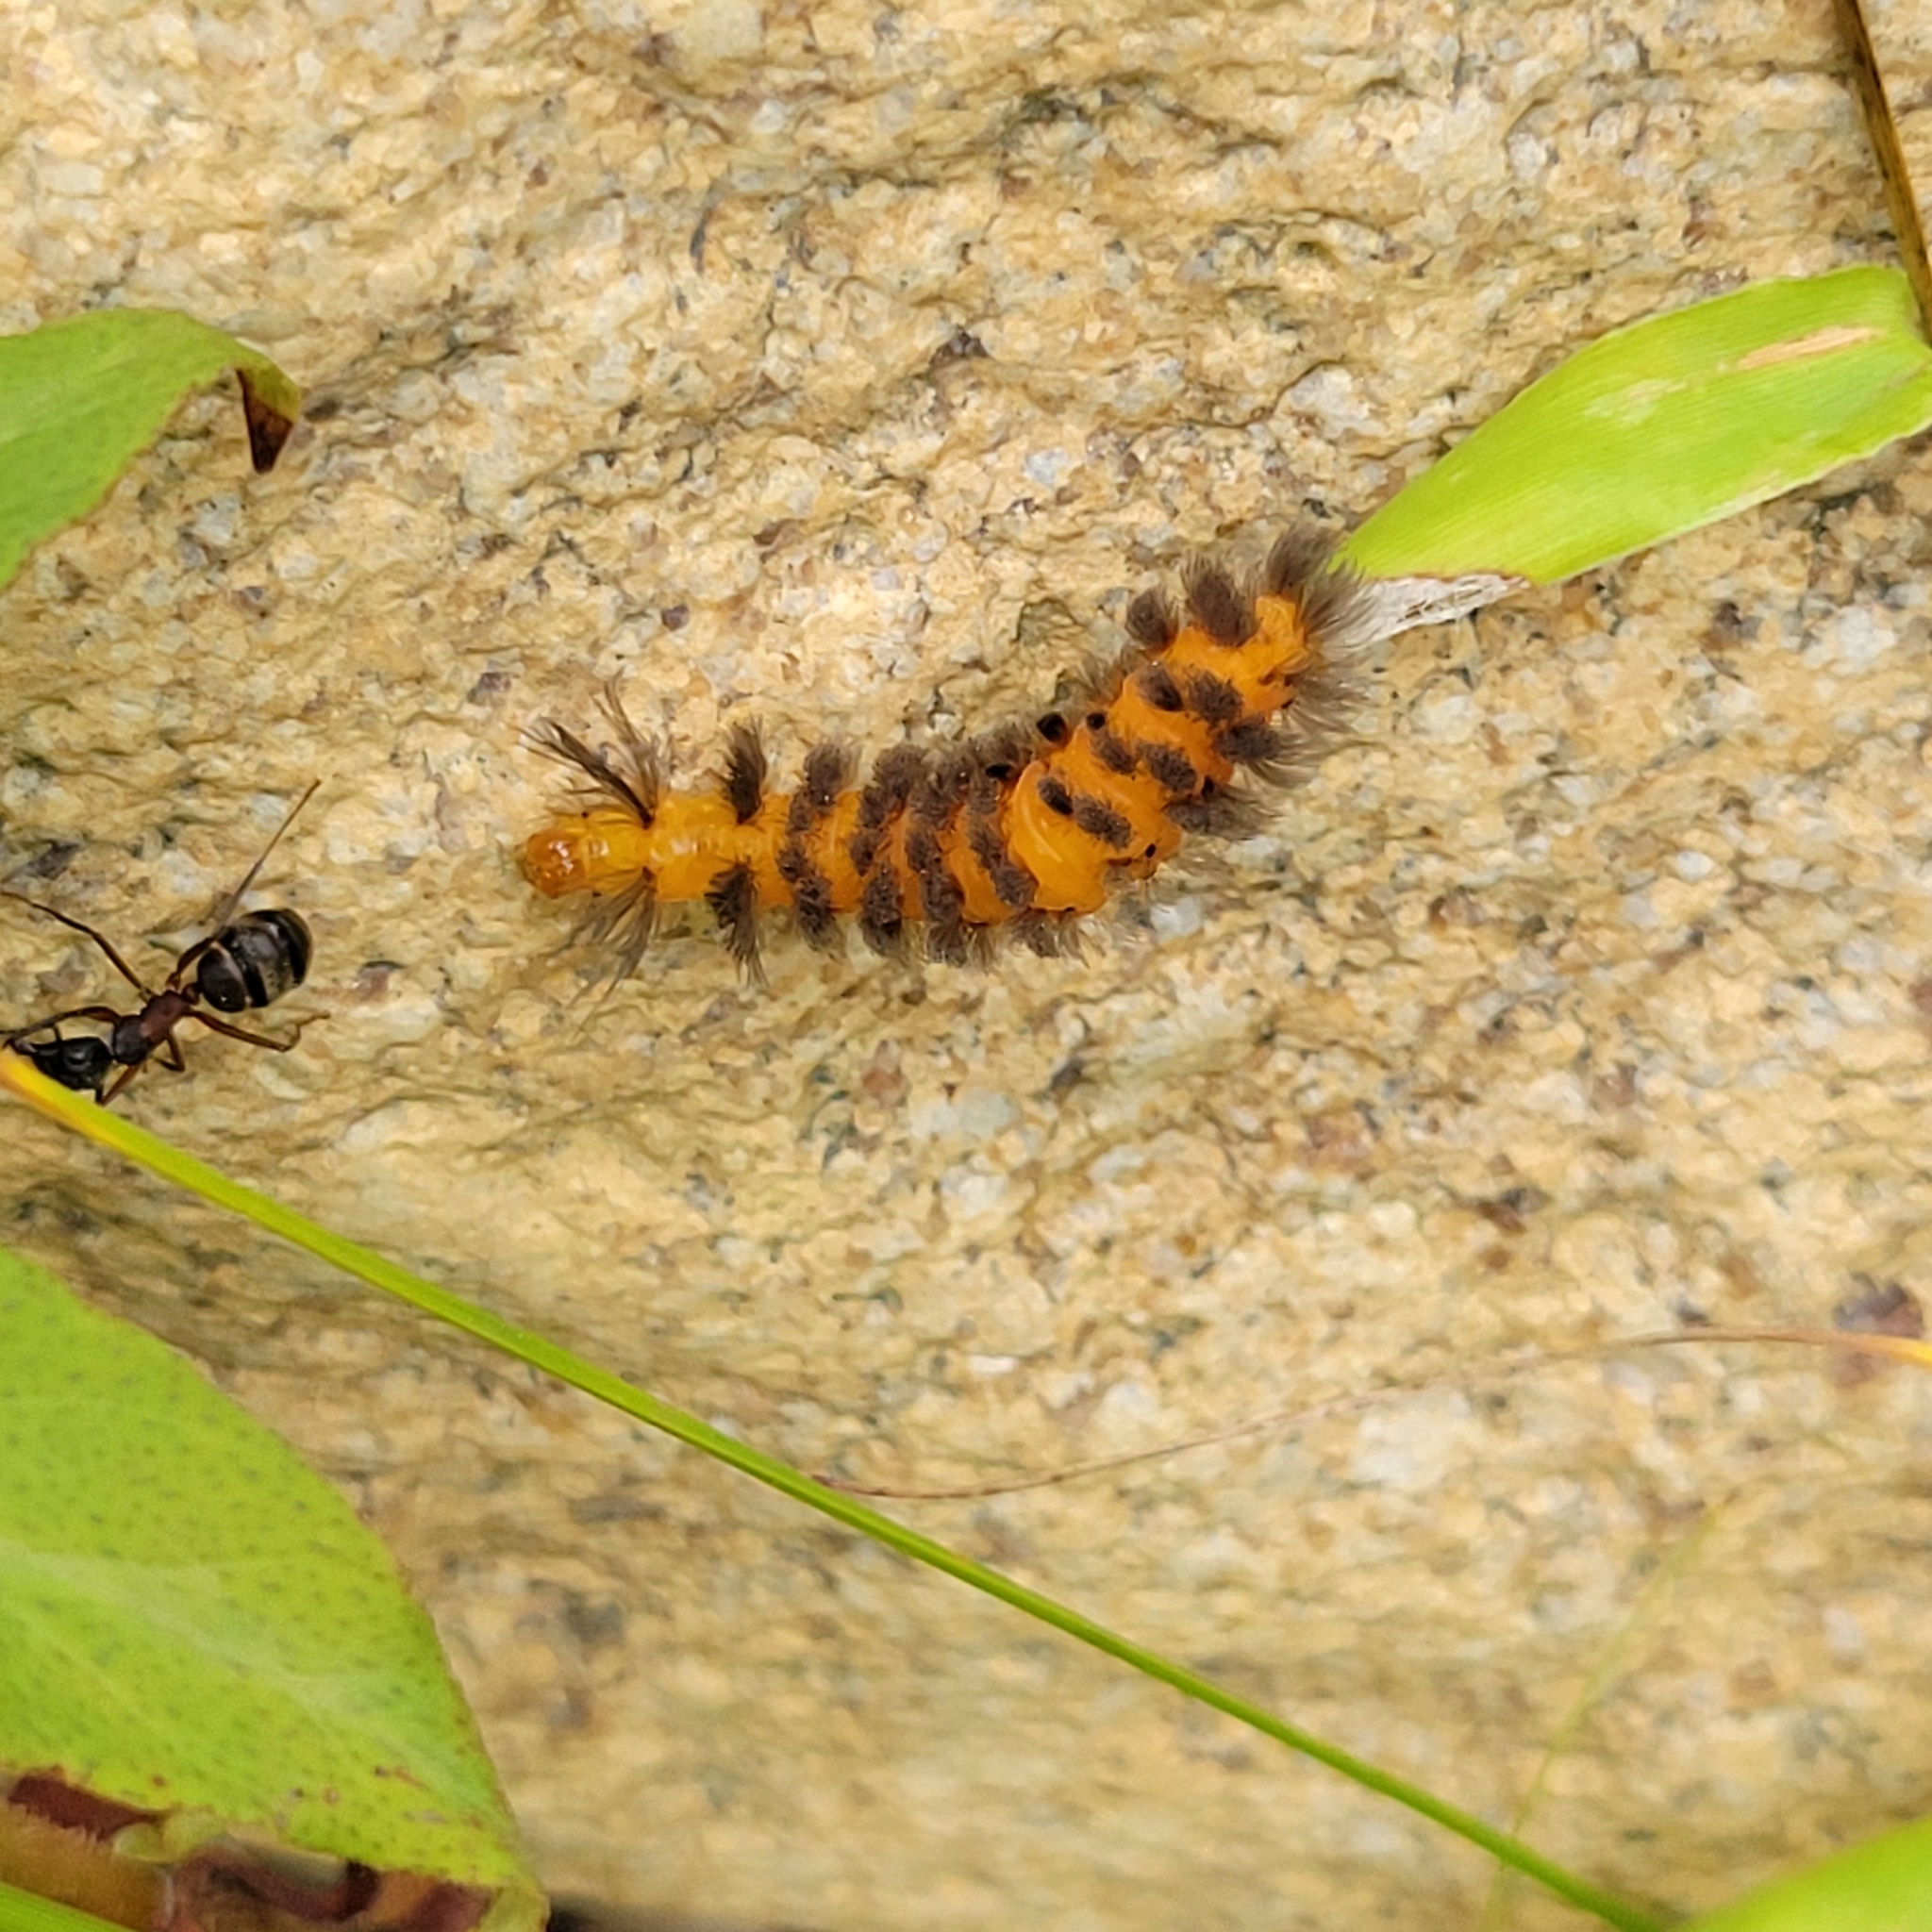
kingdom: Animalia
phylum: Arthropoda
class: Insecta
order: Lepidoptera
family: Erebidae
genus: Cycnia
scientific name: Cycnia collaris
